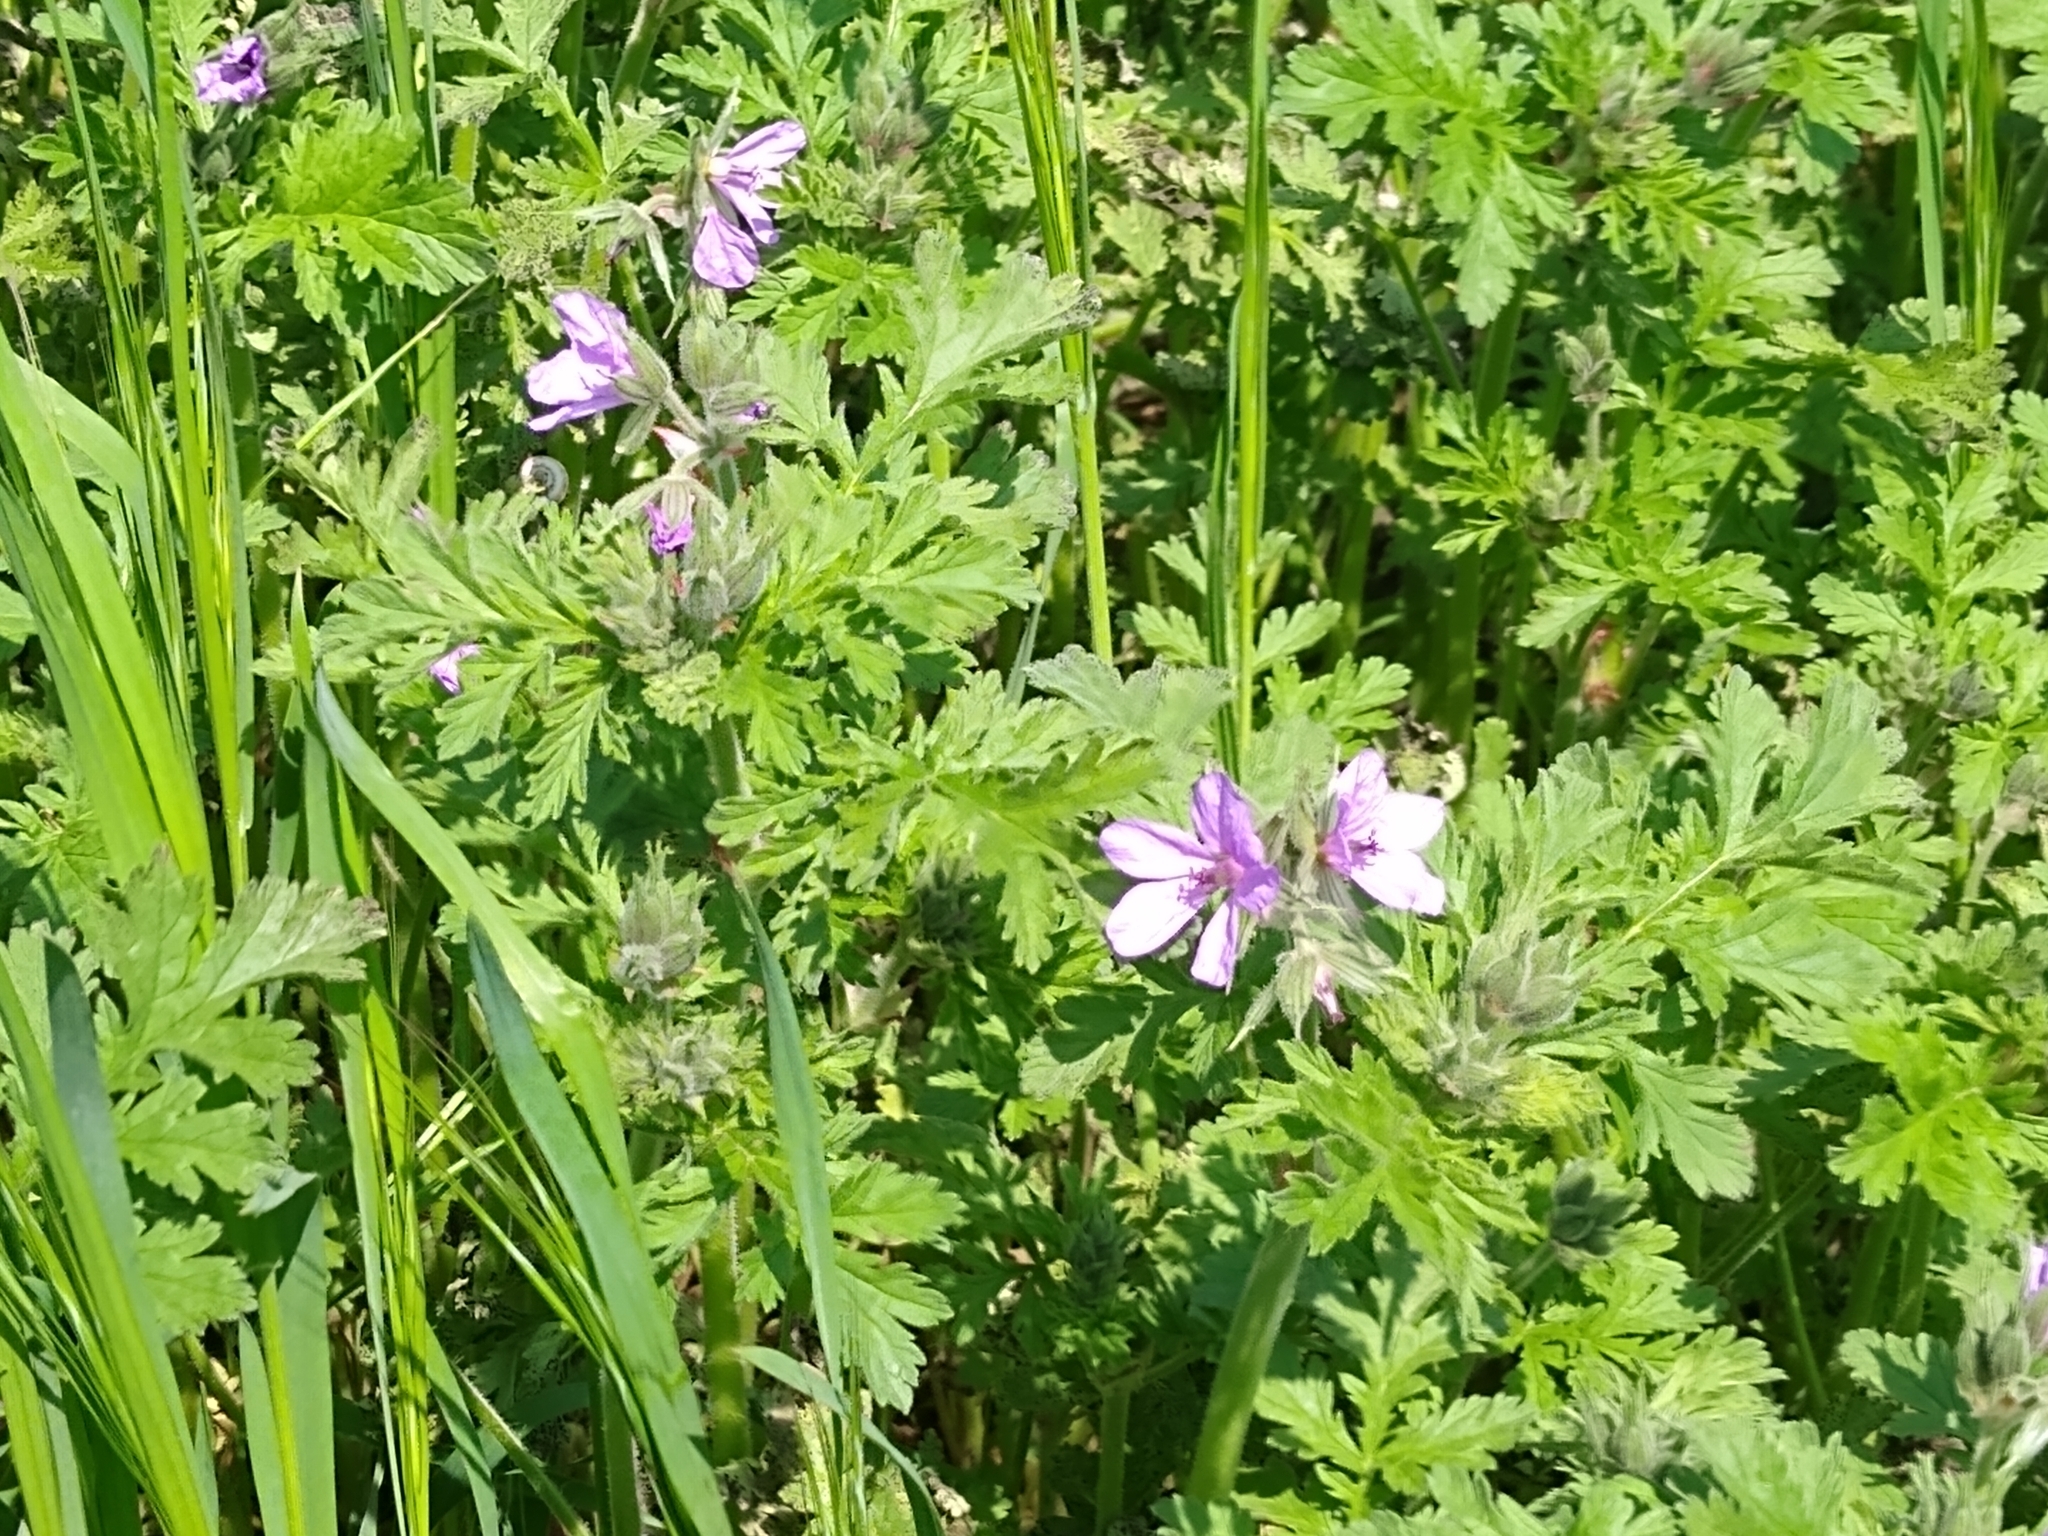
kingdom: Plantae
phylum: Tracheophyta
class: Magnoliopsida
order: Geraniales
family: Geraniaceae
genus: Erodium
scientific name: Erodium ciconium
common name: Common stork's bill
